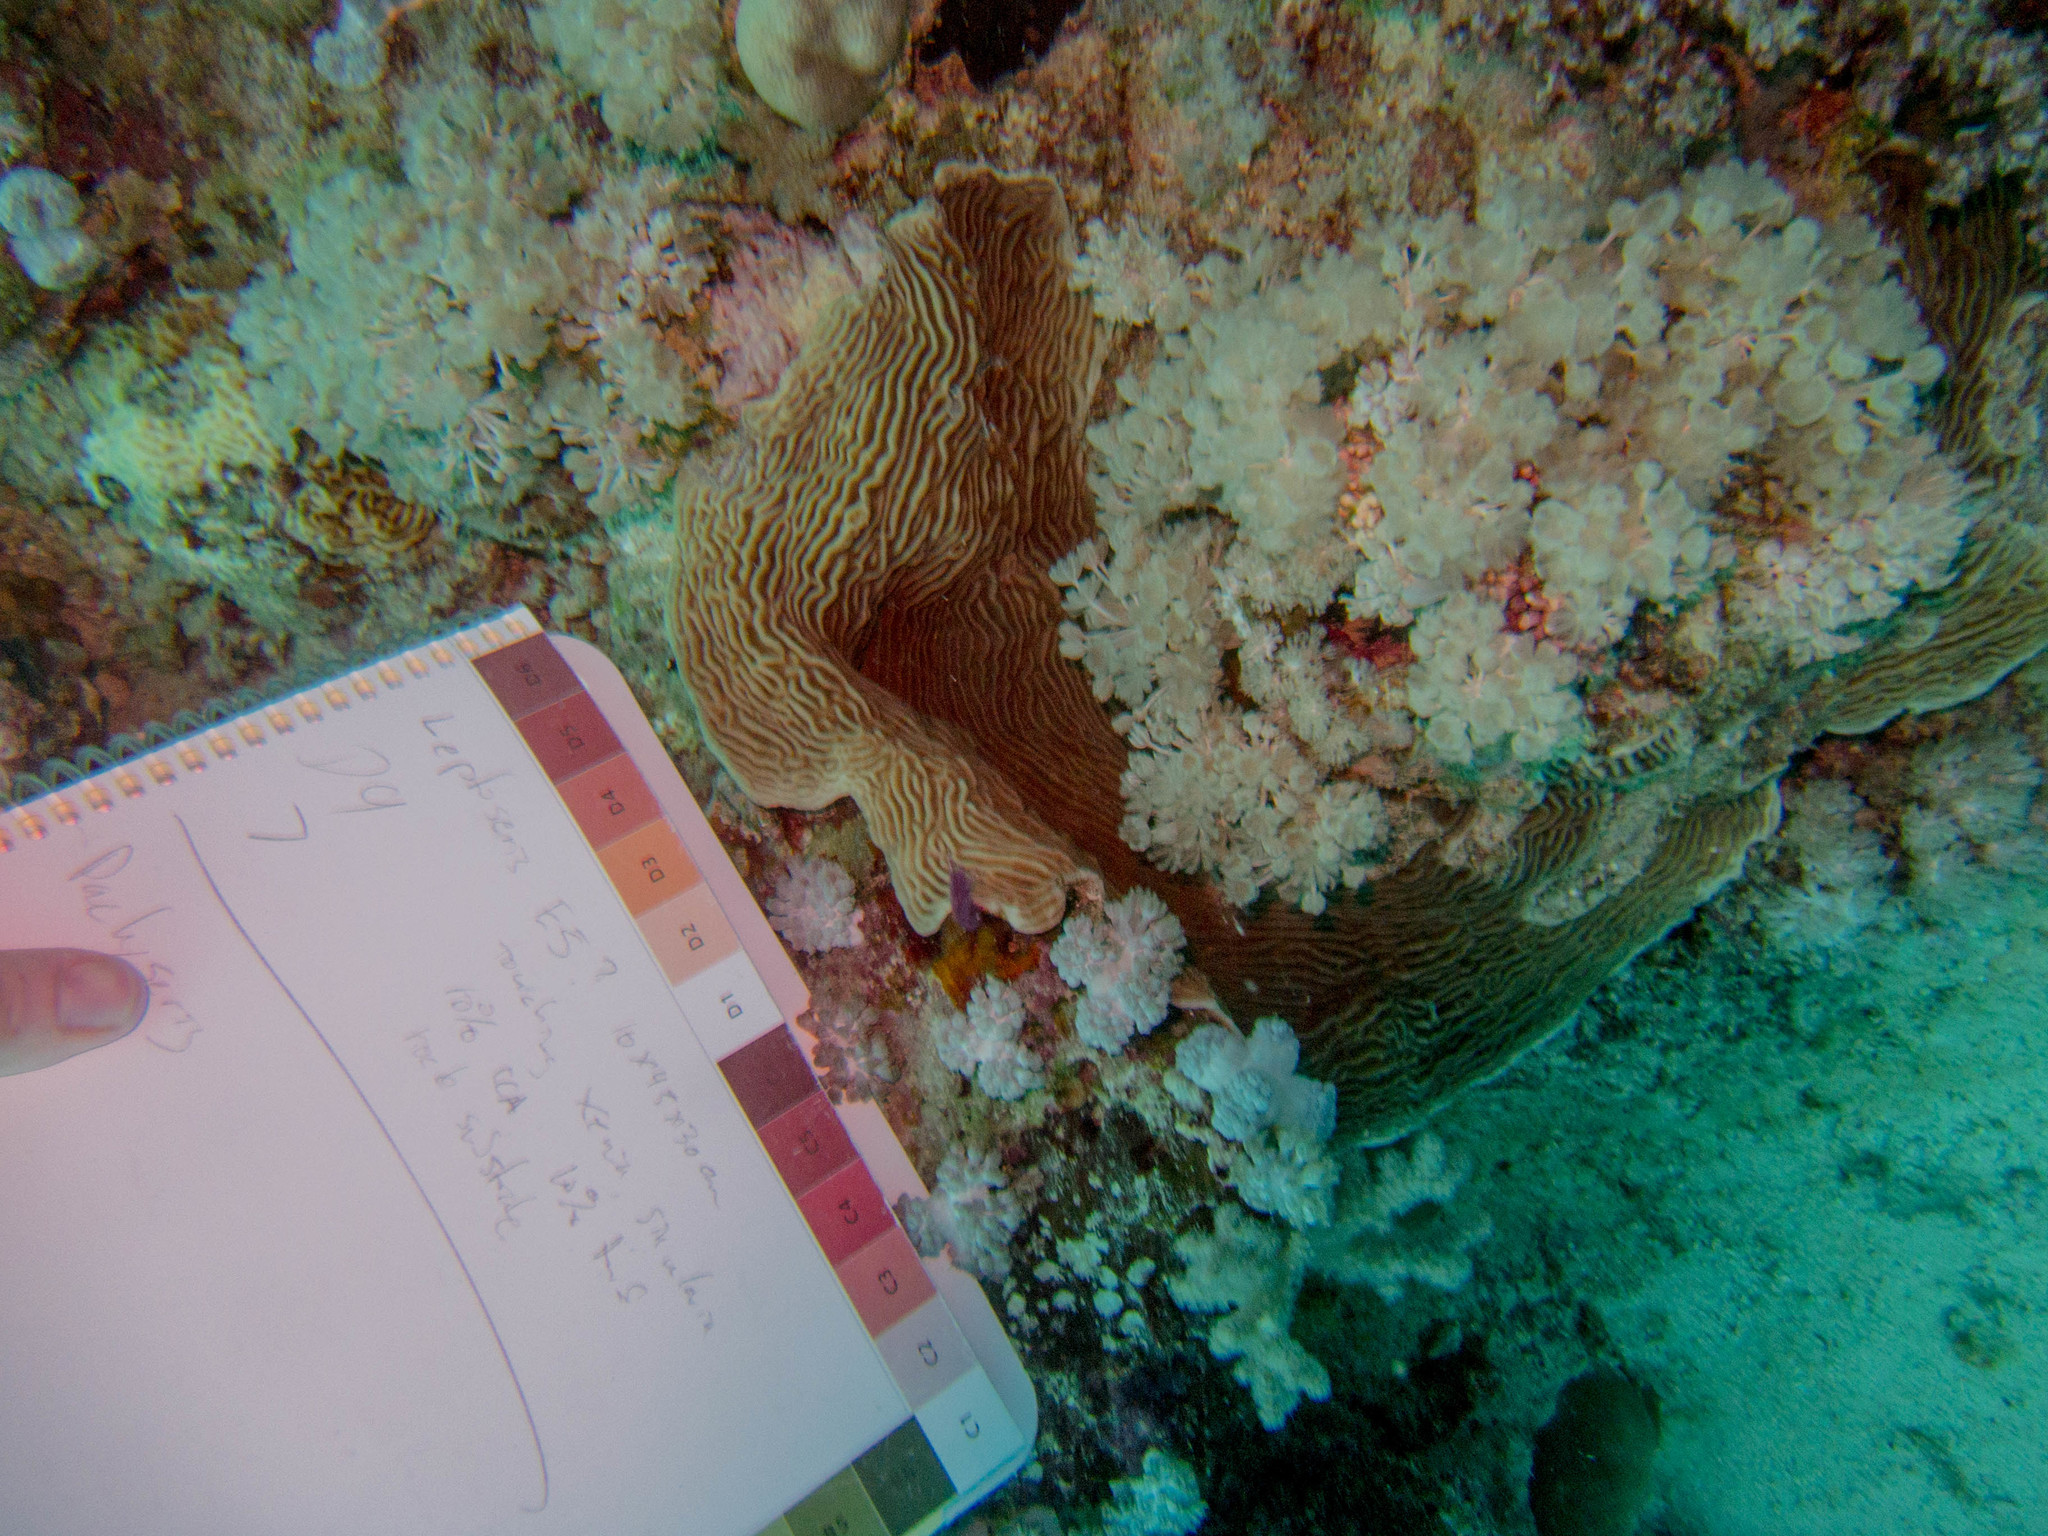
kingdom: Animalia
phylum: Cnidaria
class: Anthozoa
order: Scleractinia
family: Pachyseridae
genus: Pachyseris
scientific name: Pachyseris speciosa
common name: Serpent coral
